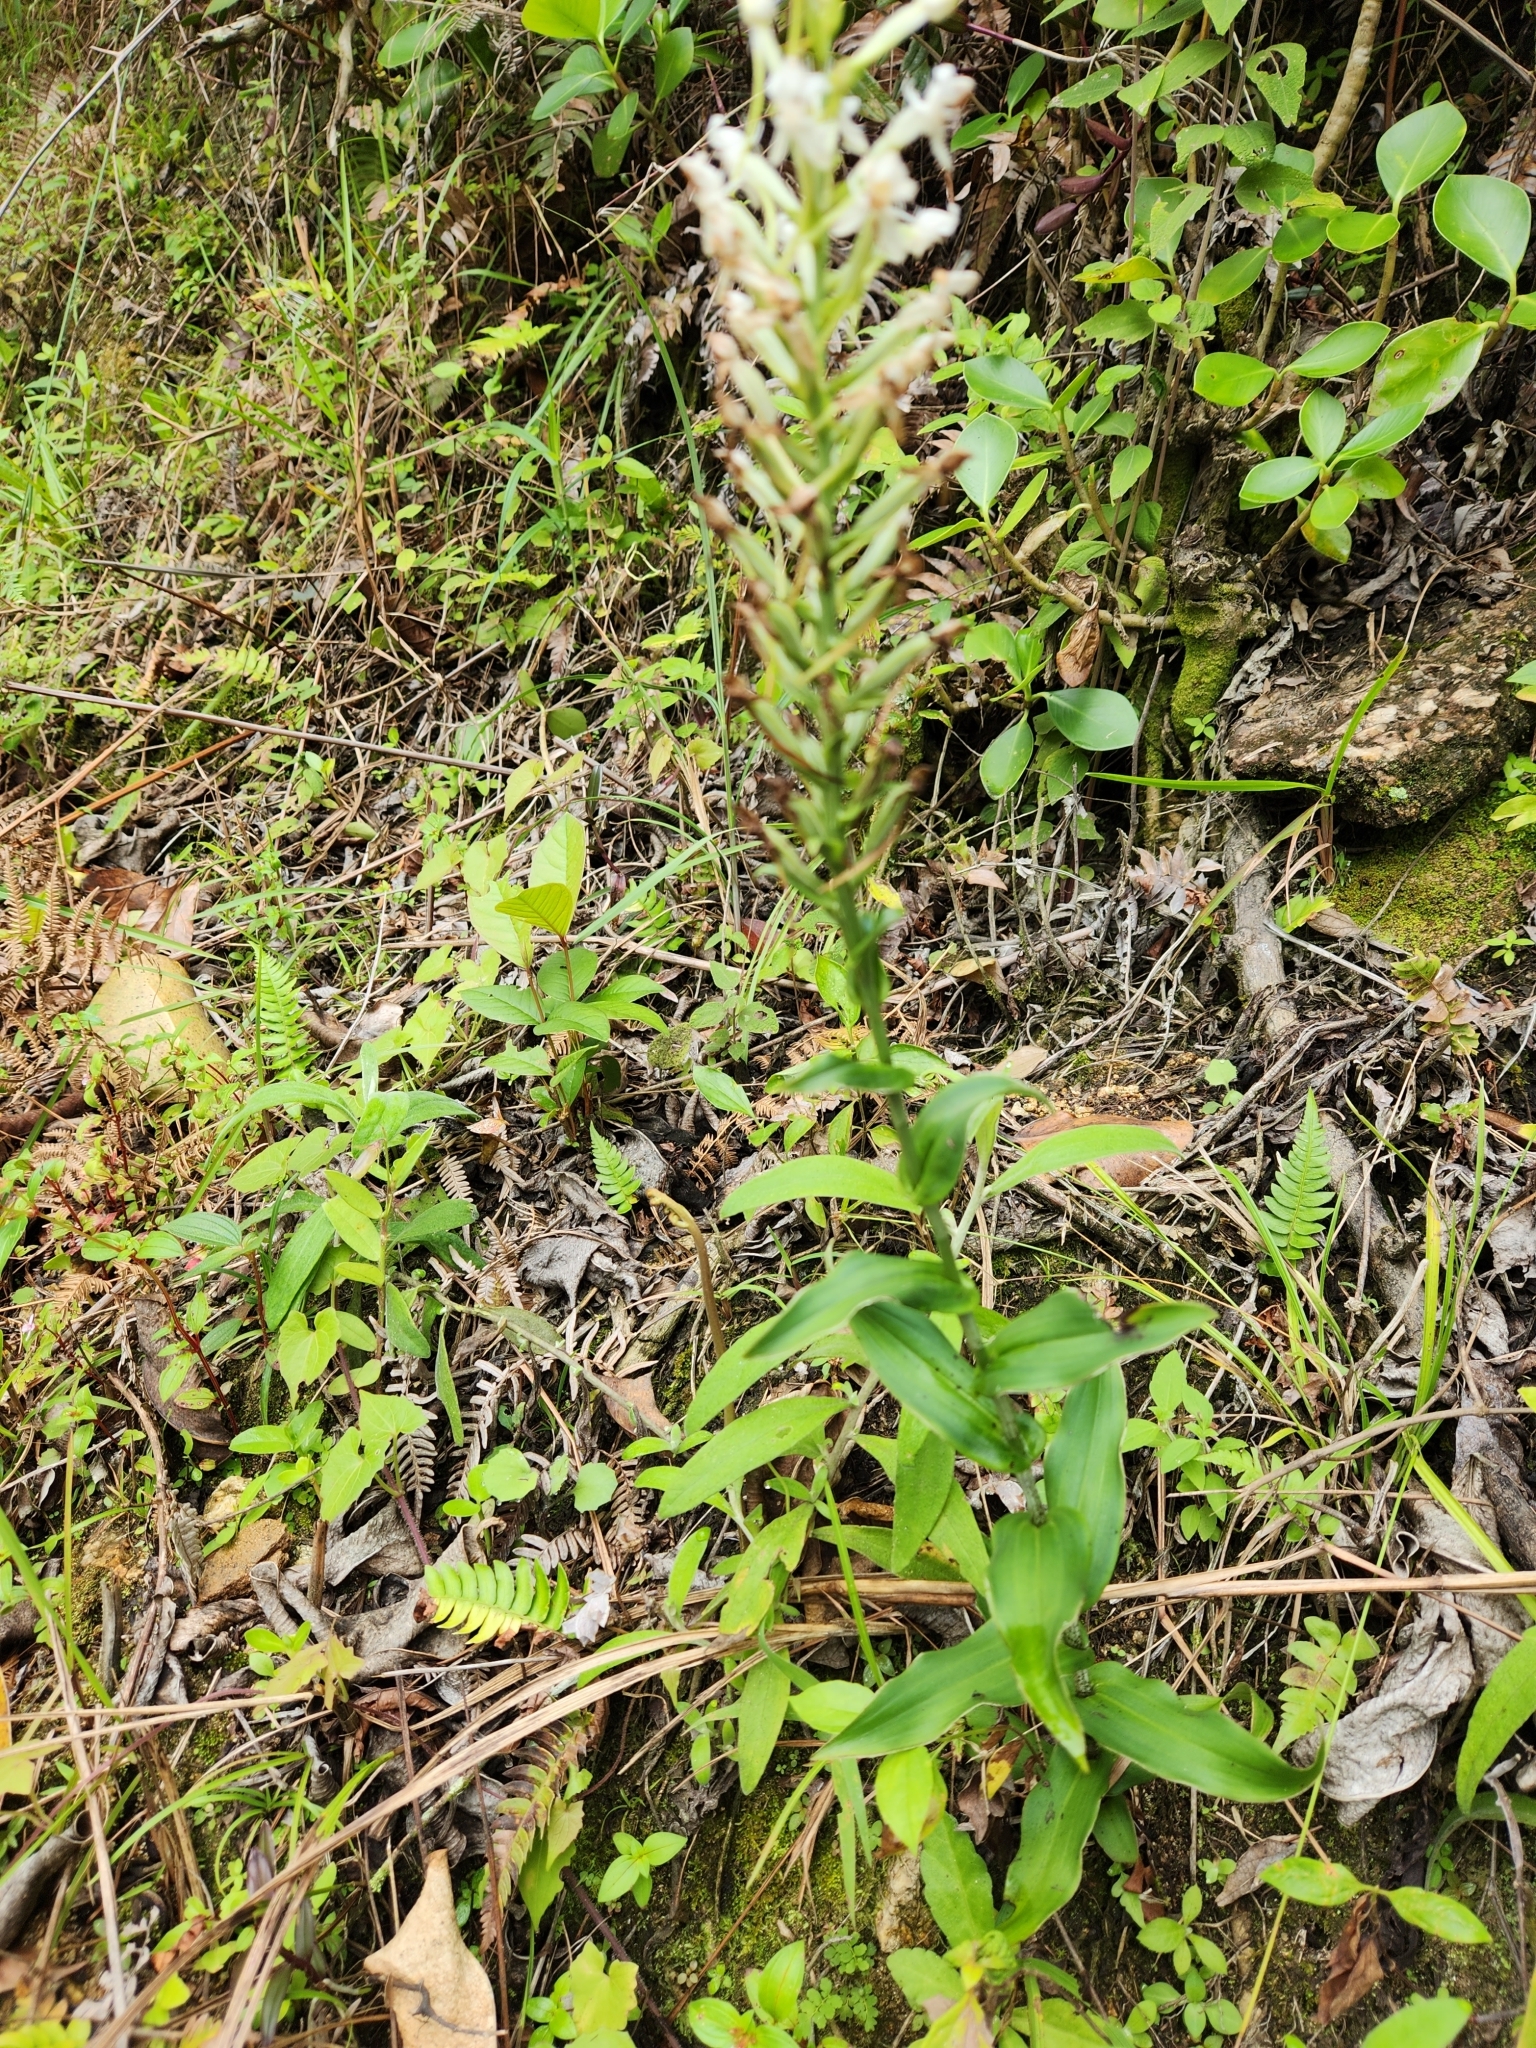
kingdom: Plantae
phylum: Tracheophyta
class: Liliopsida
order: Asparagales
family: Orchidaceae
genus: Habenaria
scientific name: Habenaria monorrhiza
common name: Tropical bog orchid
